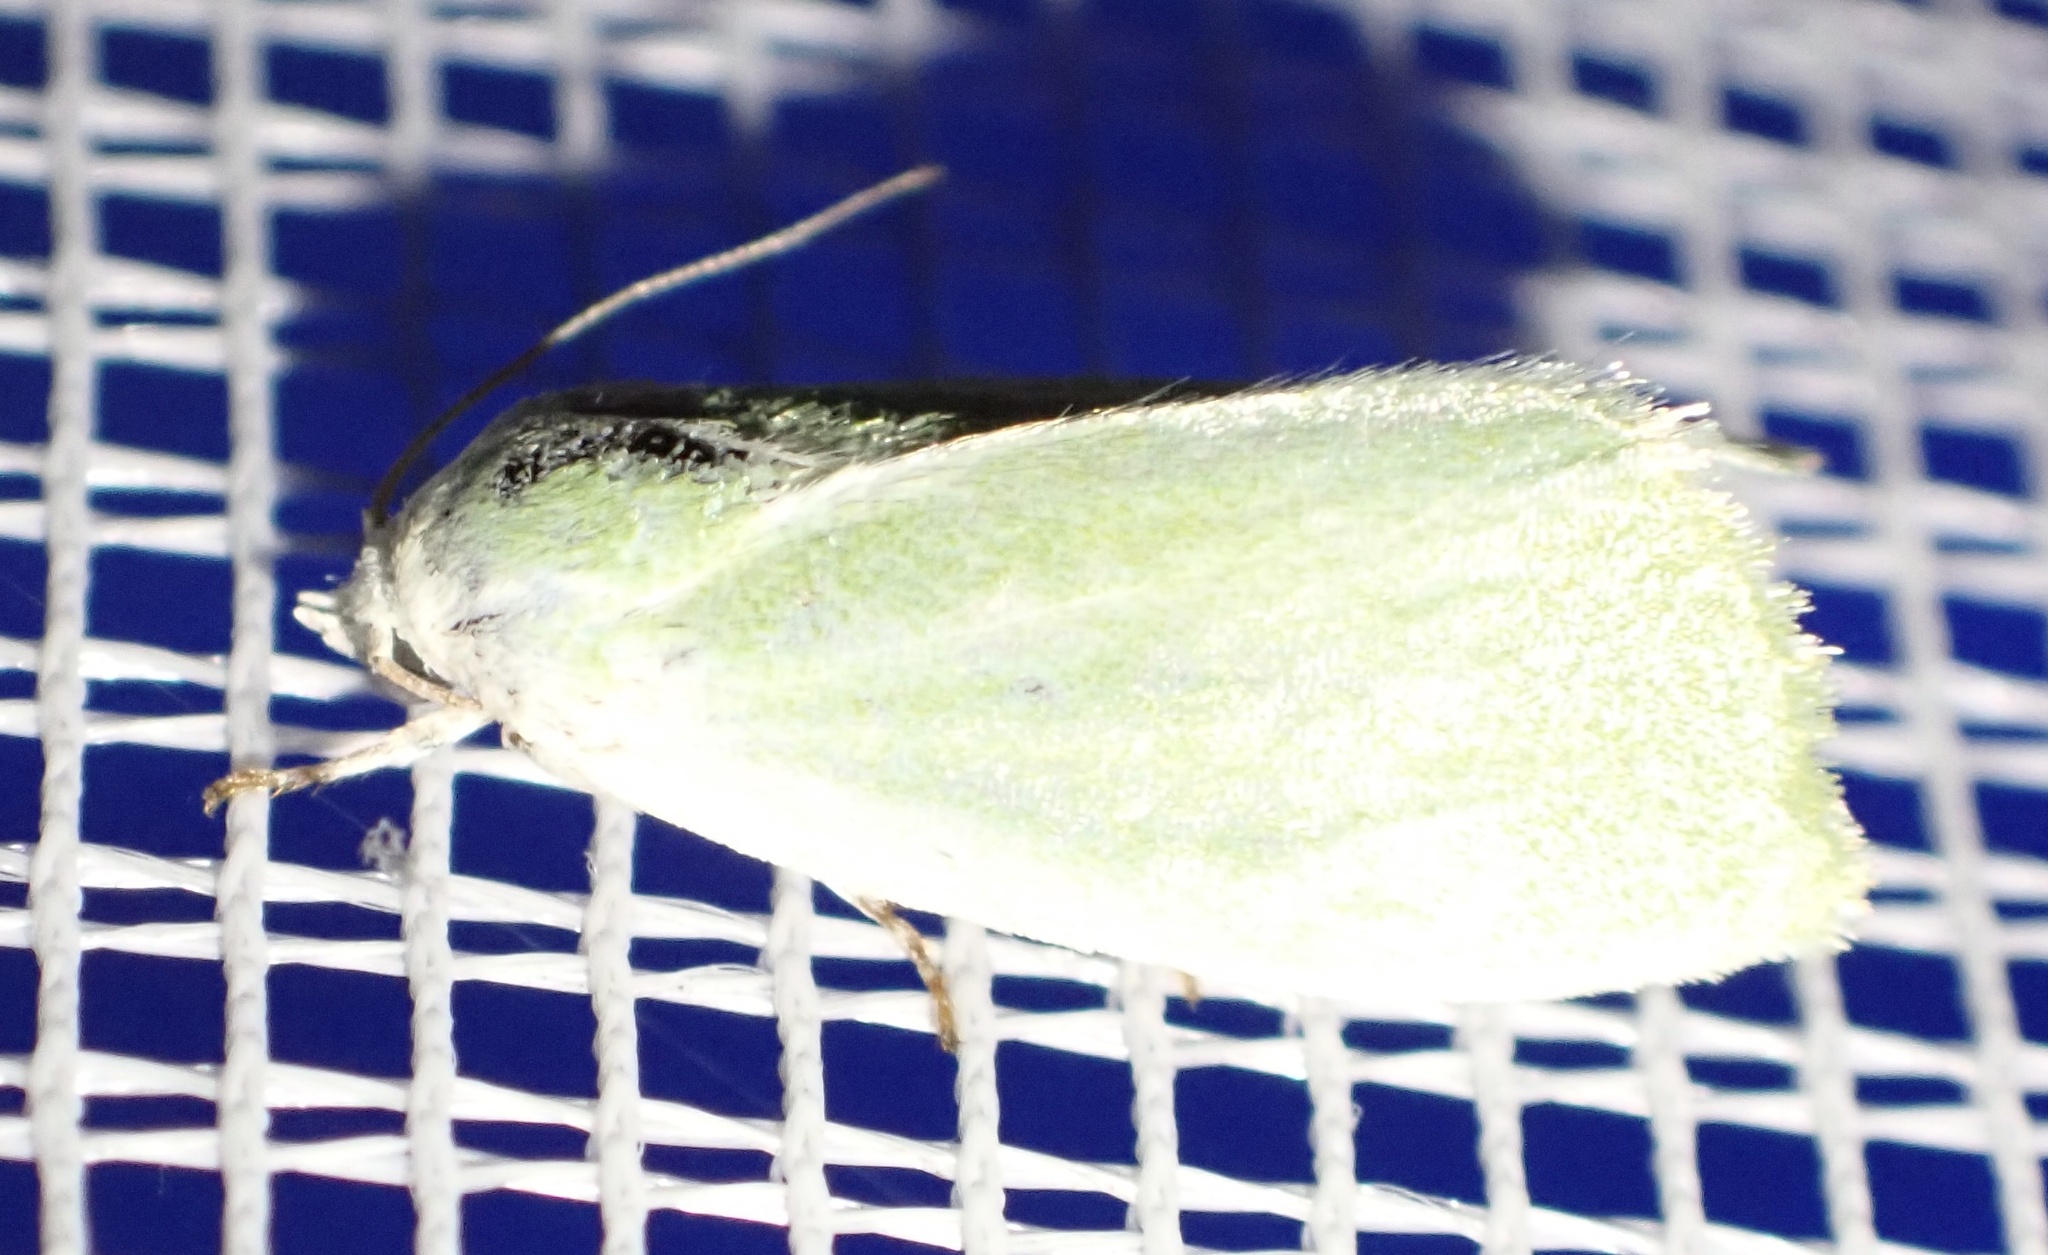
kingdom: Animalia
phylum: Arthropoda
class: Insecta
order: Lepidoptera
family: Nolidae
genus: Earias
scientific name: Earias clorana
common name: Cream-bordered green pea
